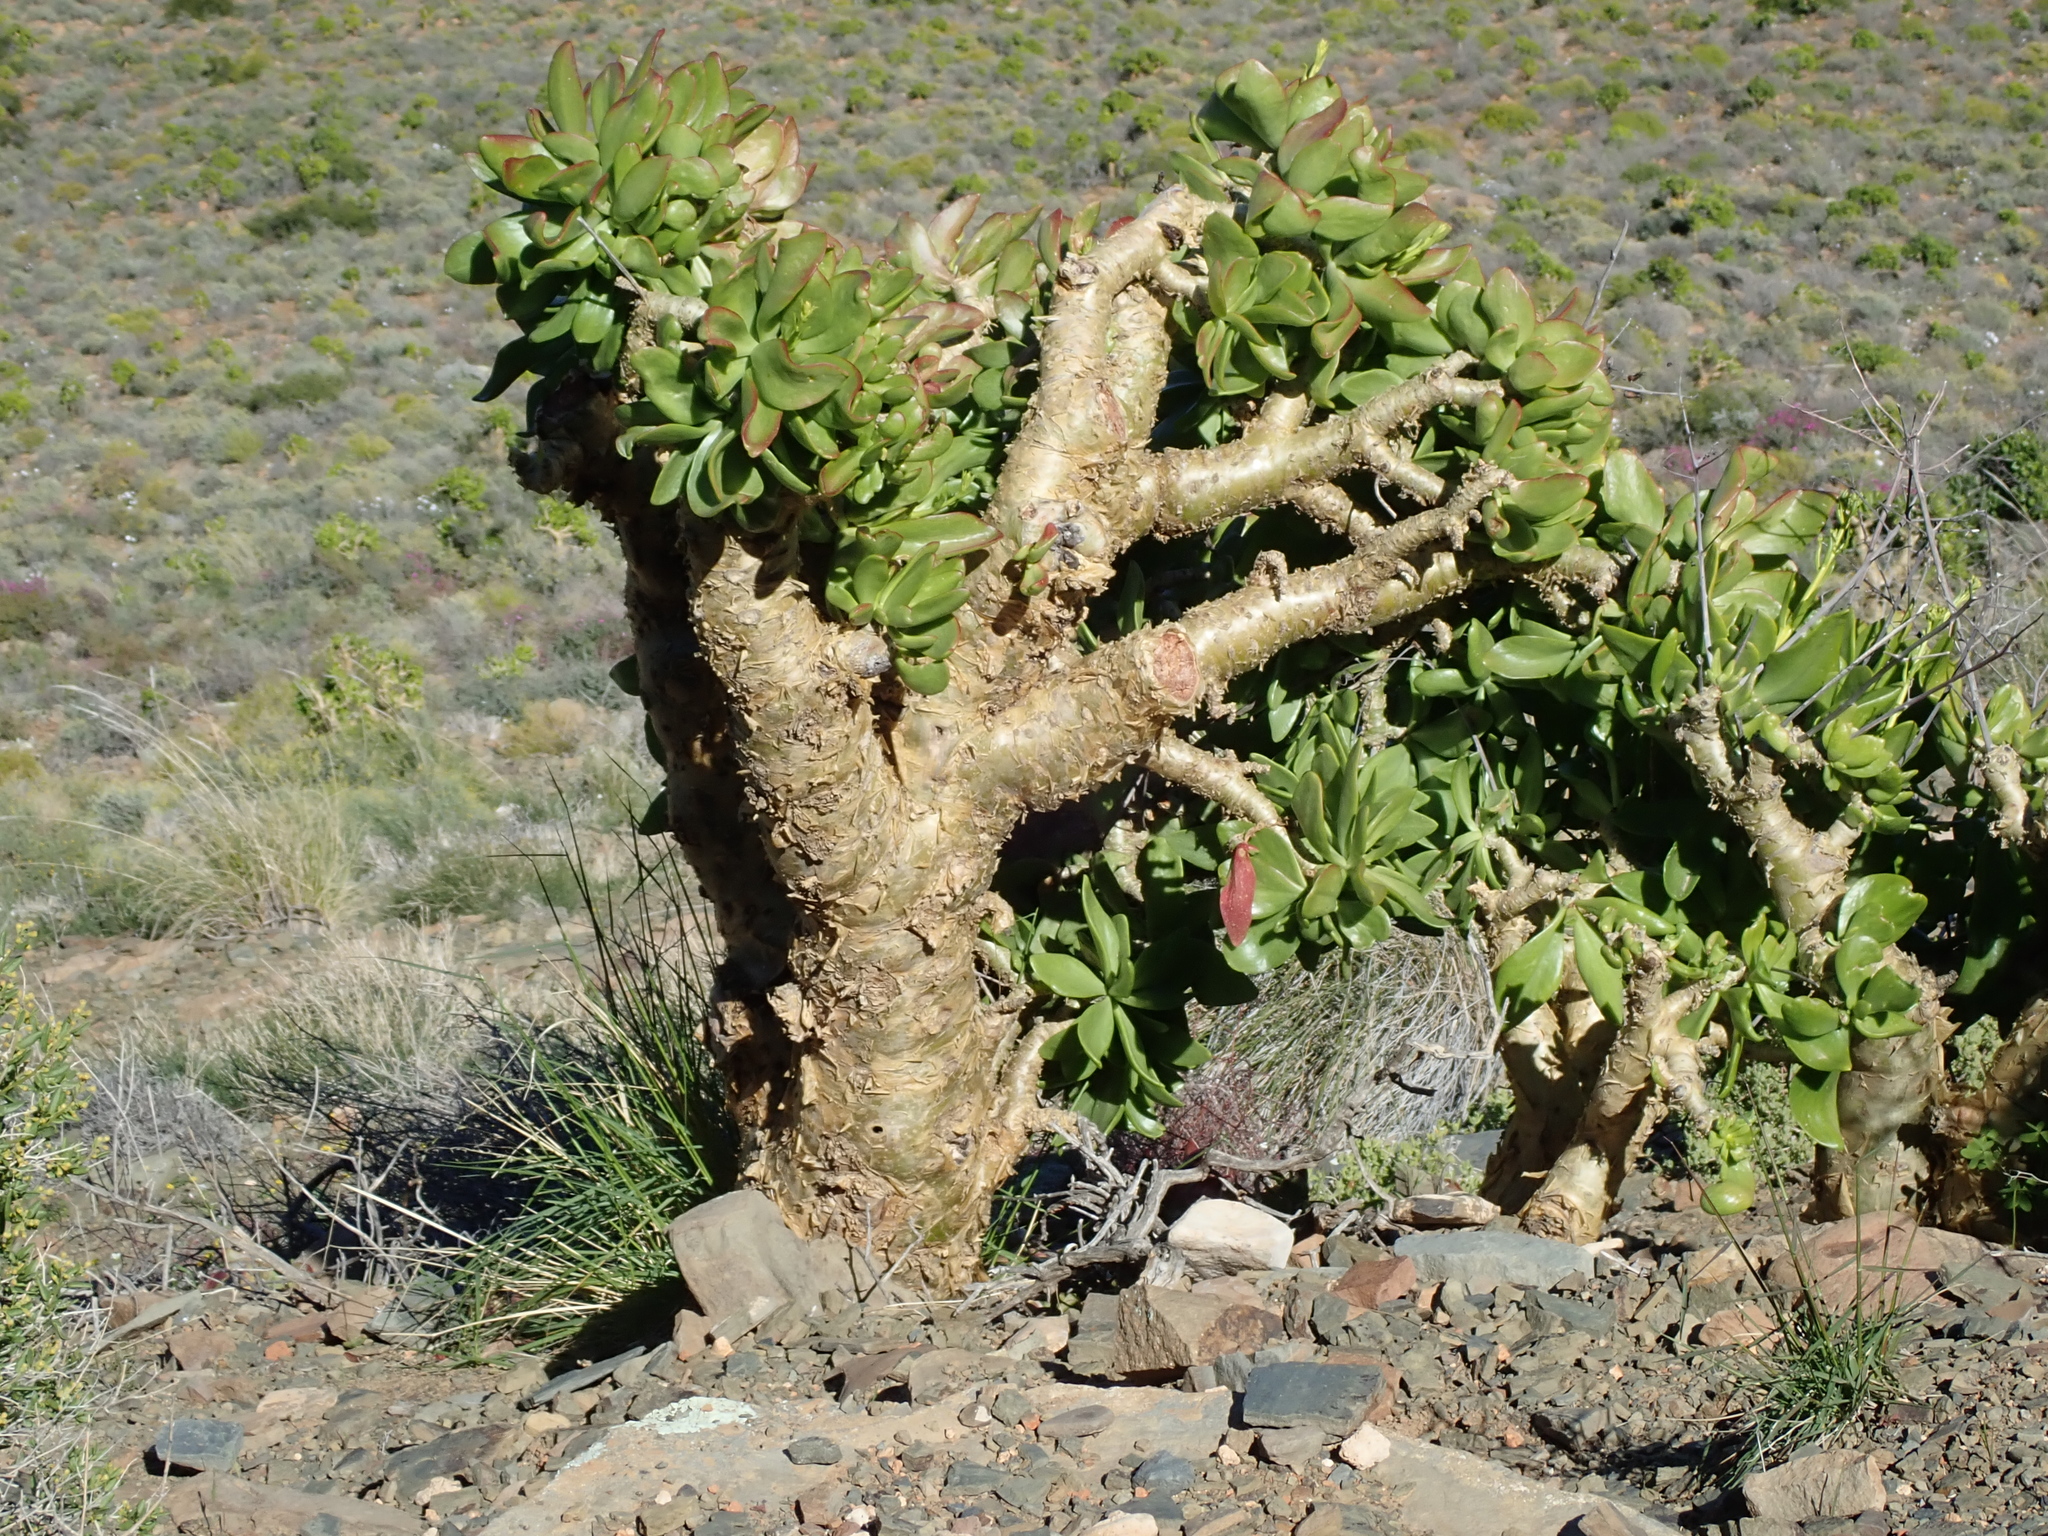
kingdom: Plantae
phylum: Tracheophyta
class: Magnoliopsida
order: Saxifragales
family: Crassulaceae
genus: Tylecodon
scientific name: Tylecodon paniculatus
